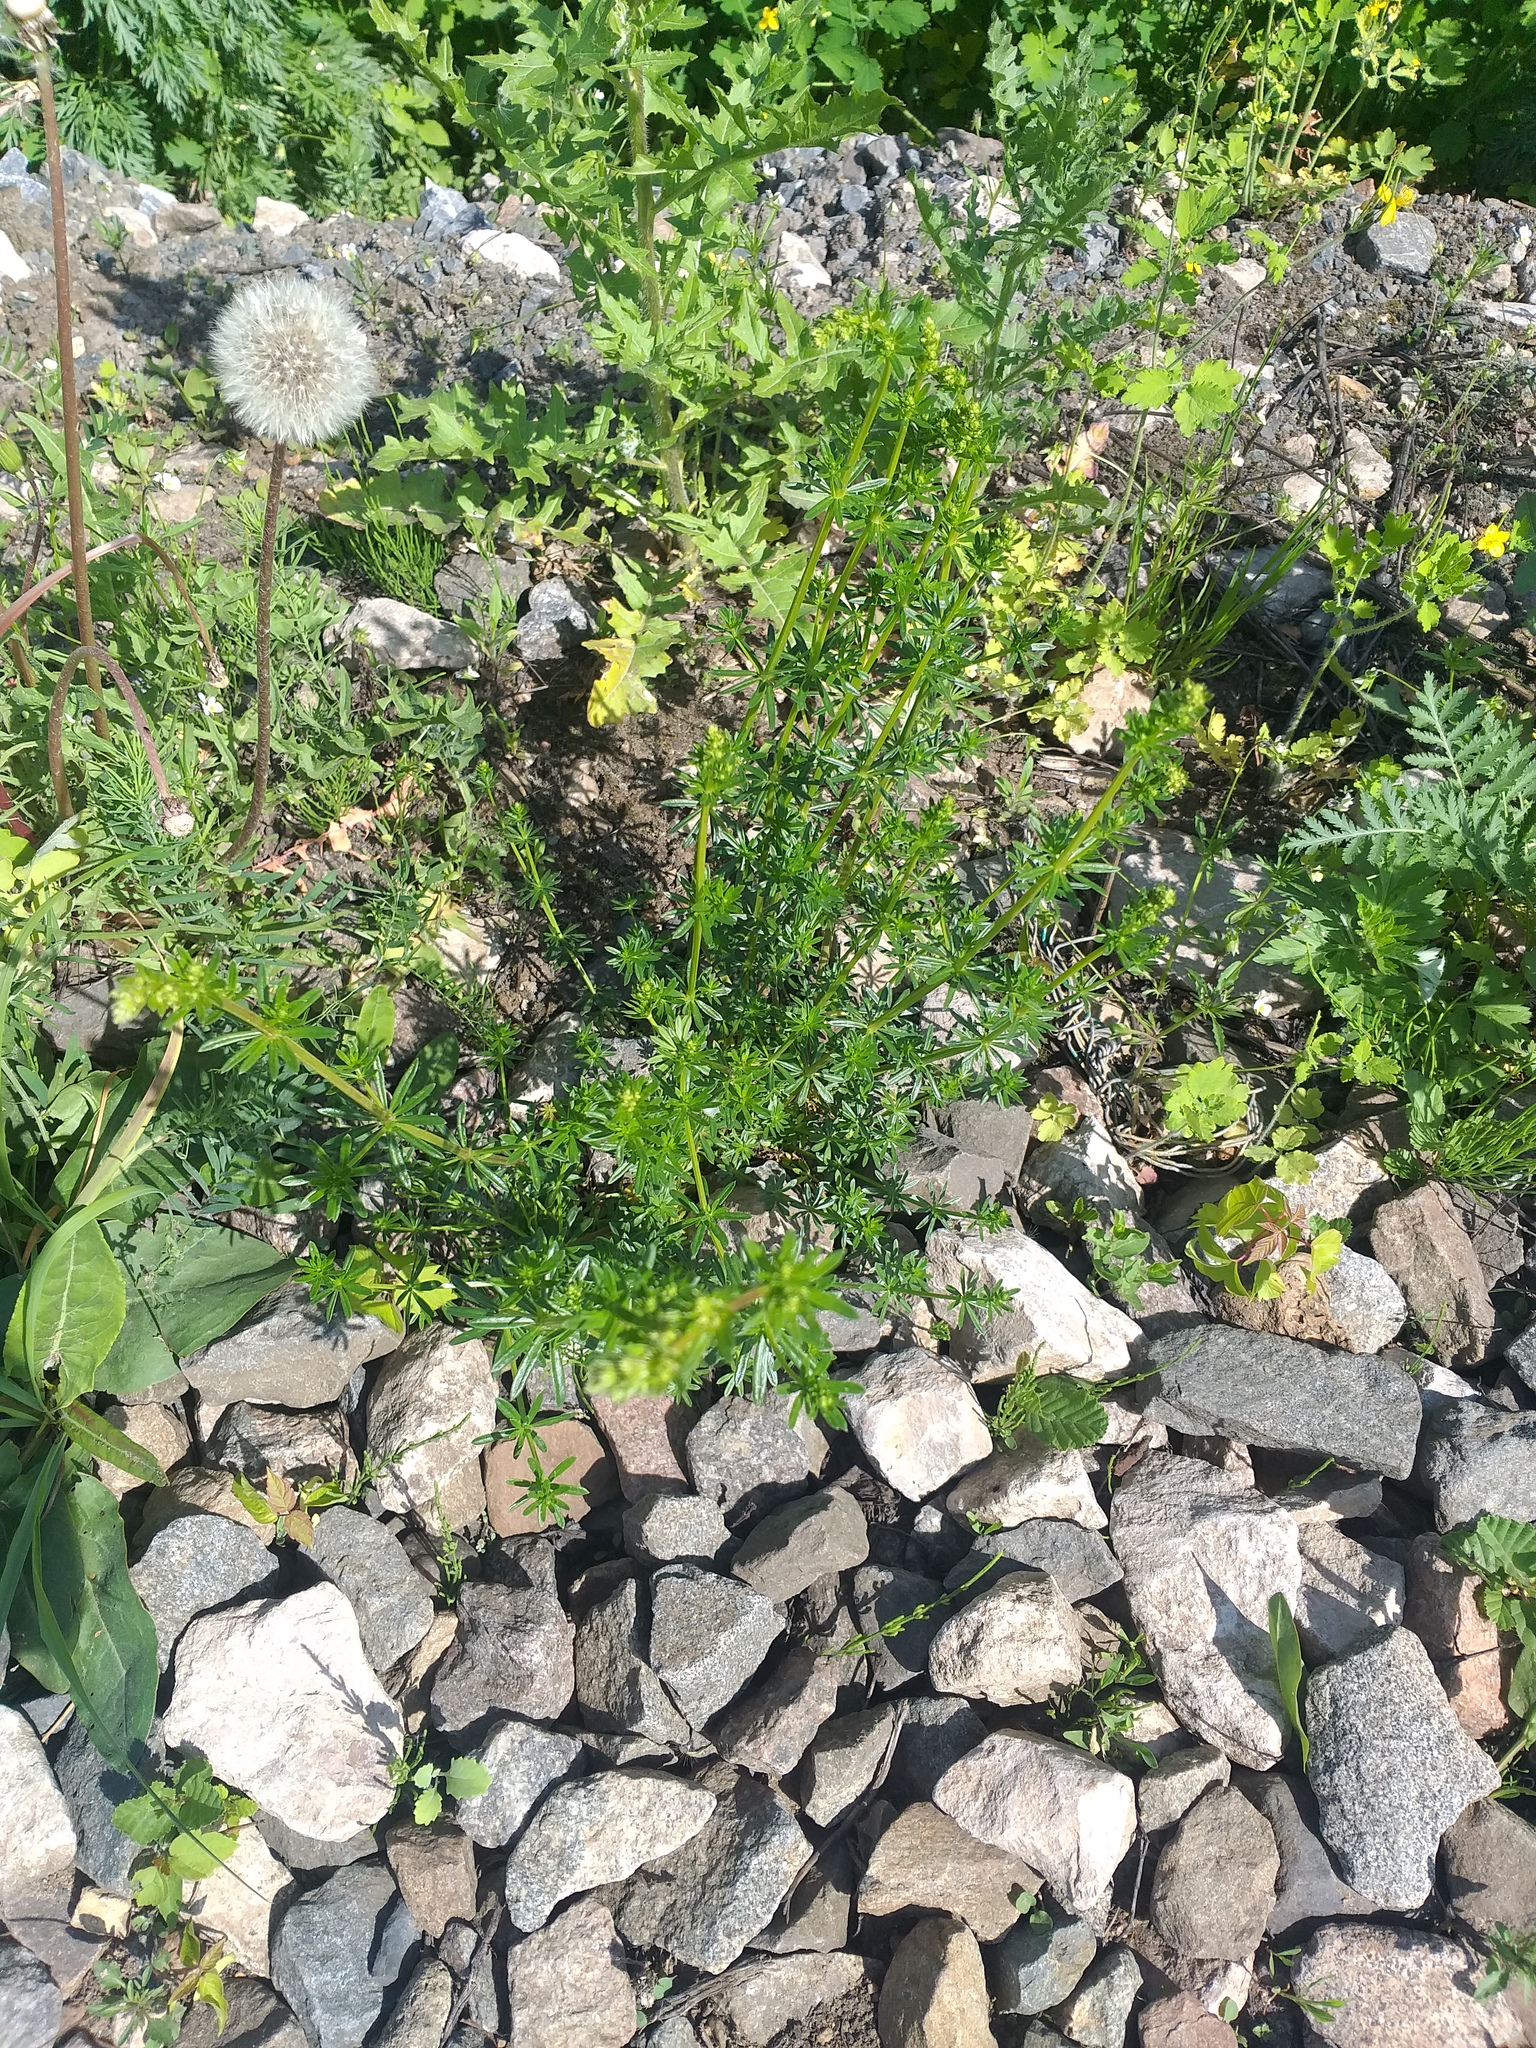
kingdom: Plantae
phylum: Tracheophyta
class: Magnoliopsida
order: Gentianales
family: Rubiaceae
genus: Galium
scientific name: Galium mollugo
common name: Hedge bedstraw
